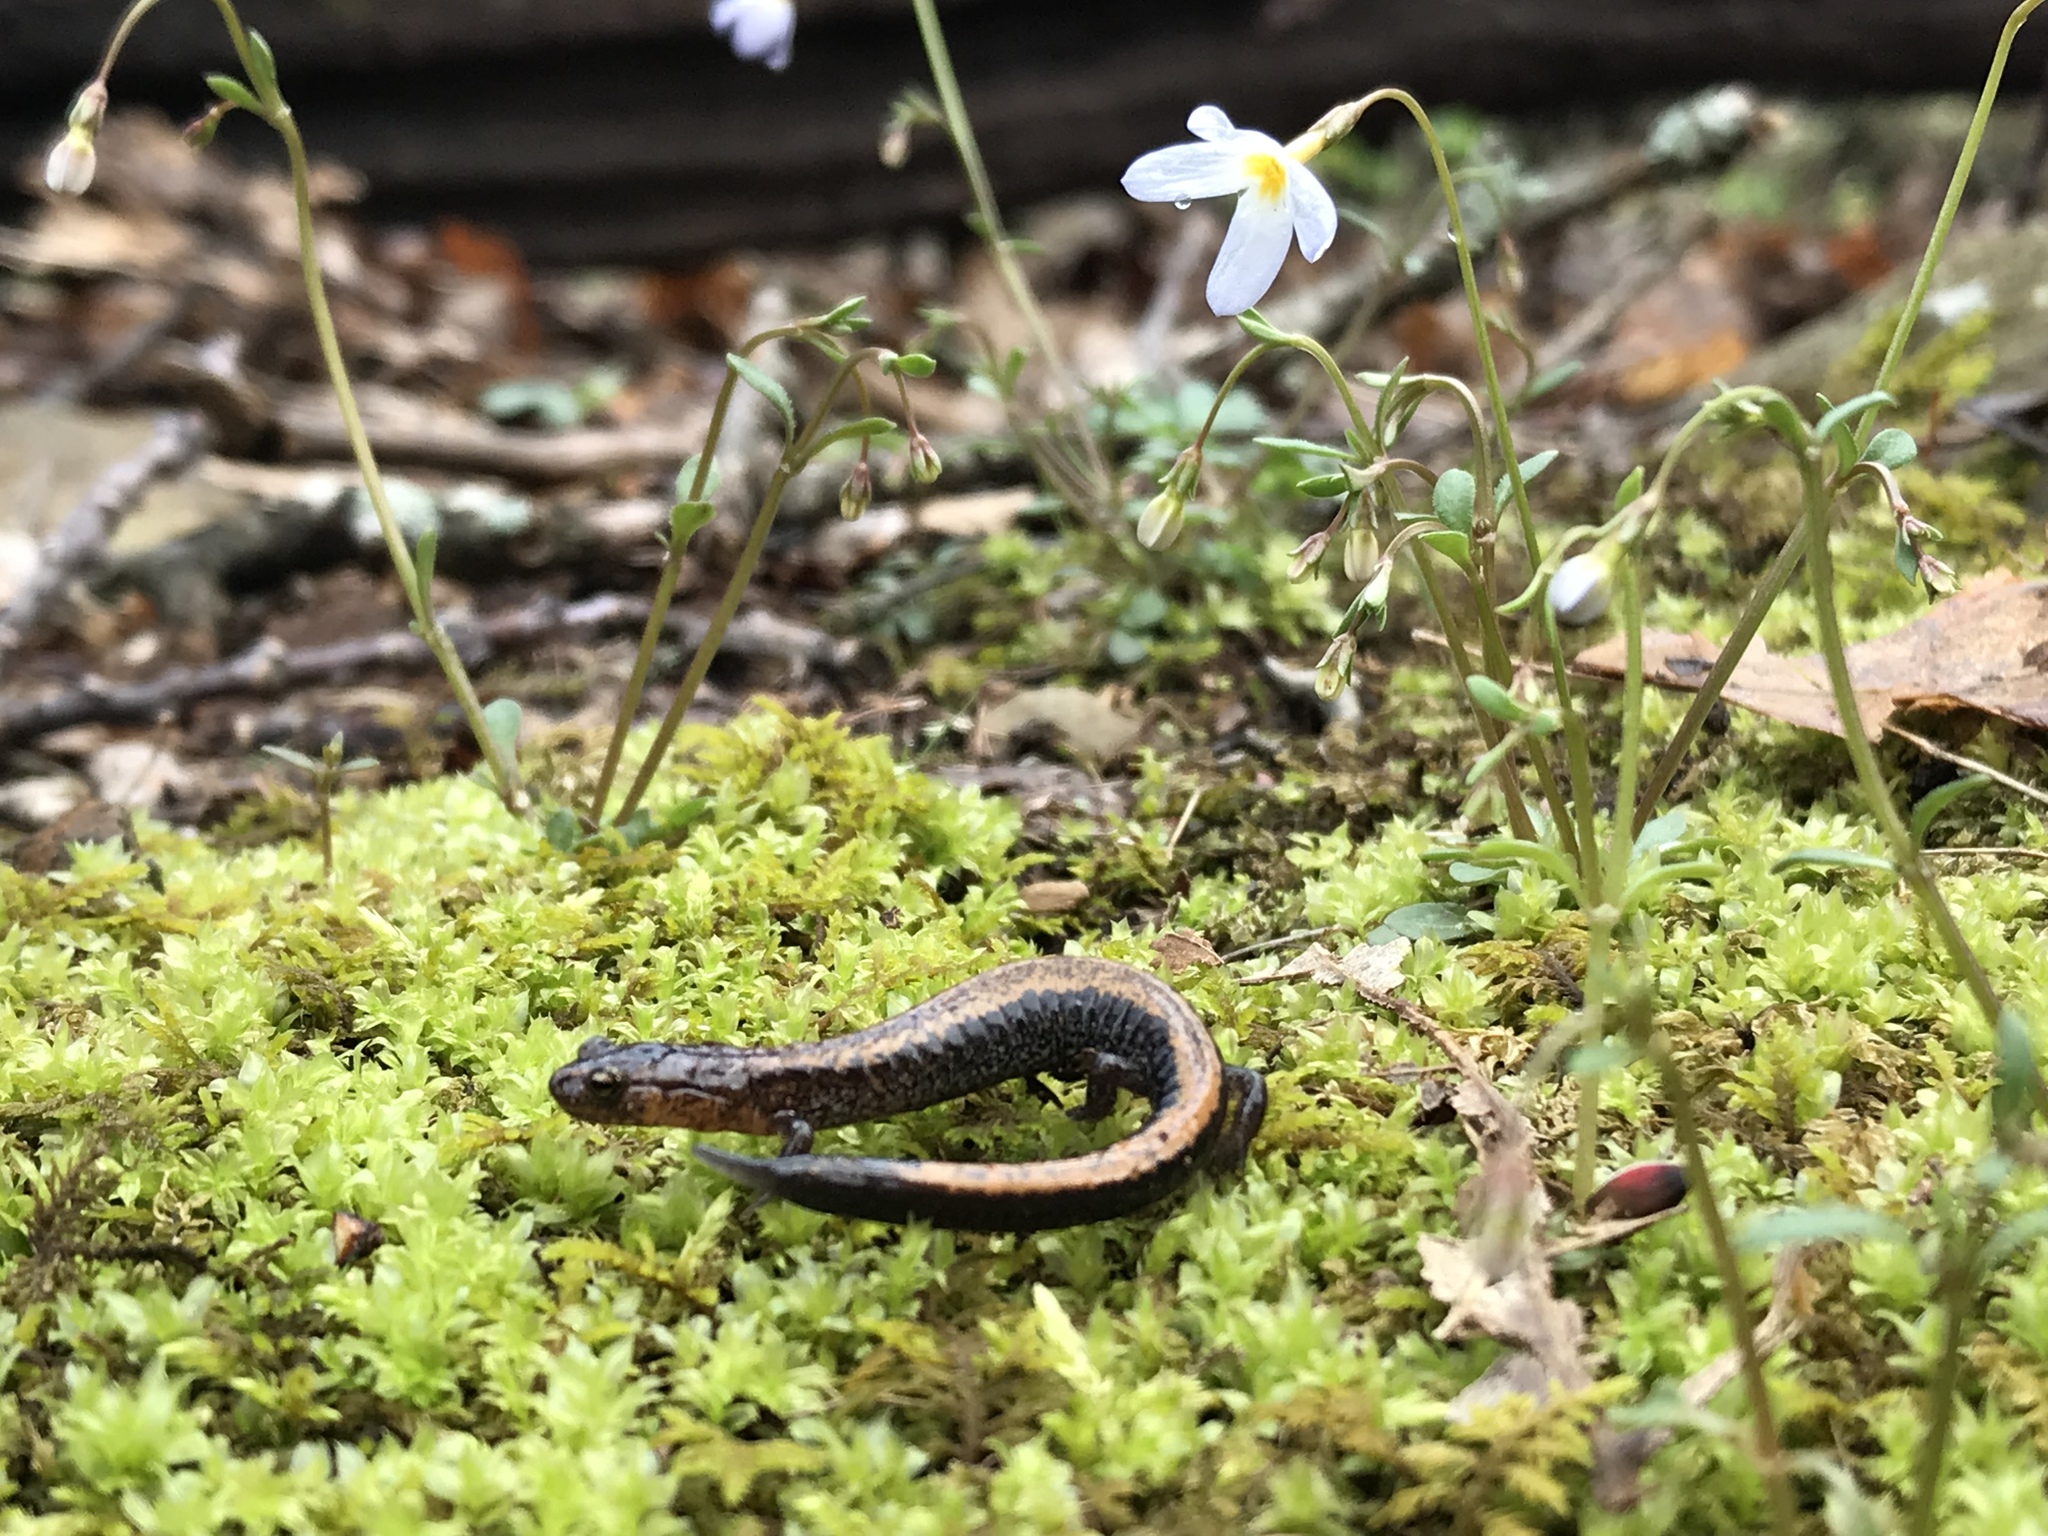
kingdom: Animalia
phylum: Chordata
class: Amphibia
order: Caudata
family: Plethodontidae
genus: Plethodon
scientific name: Plethodon cinereus
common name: Redback salamander
